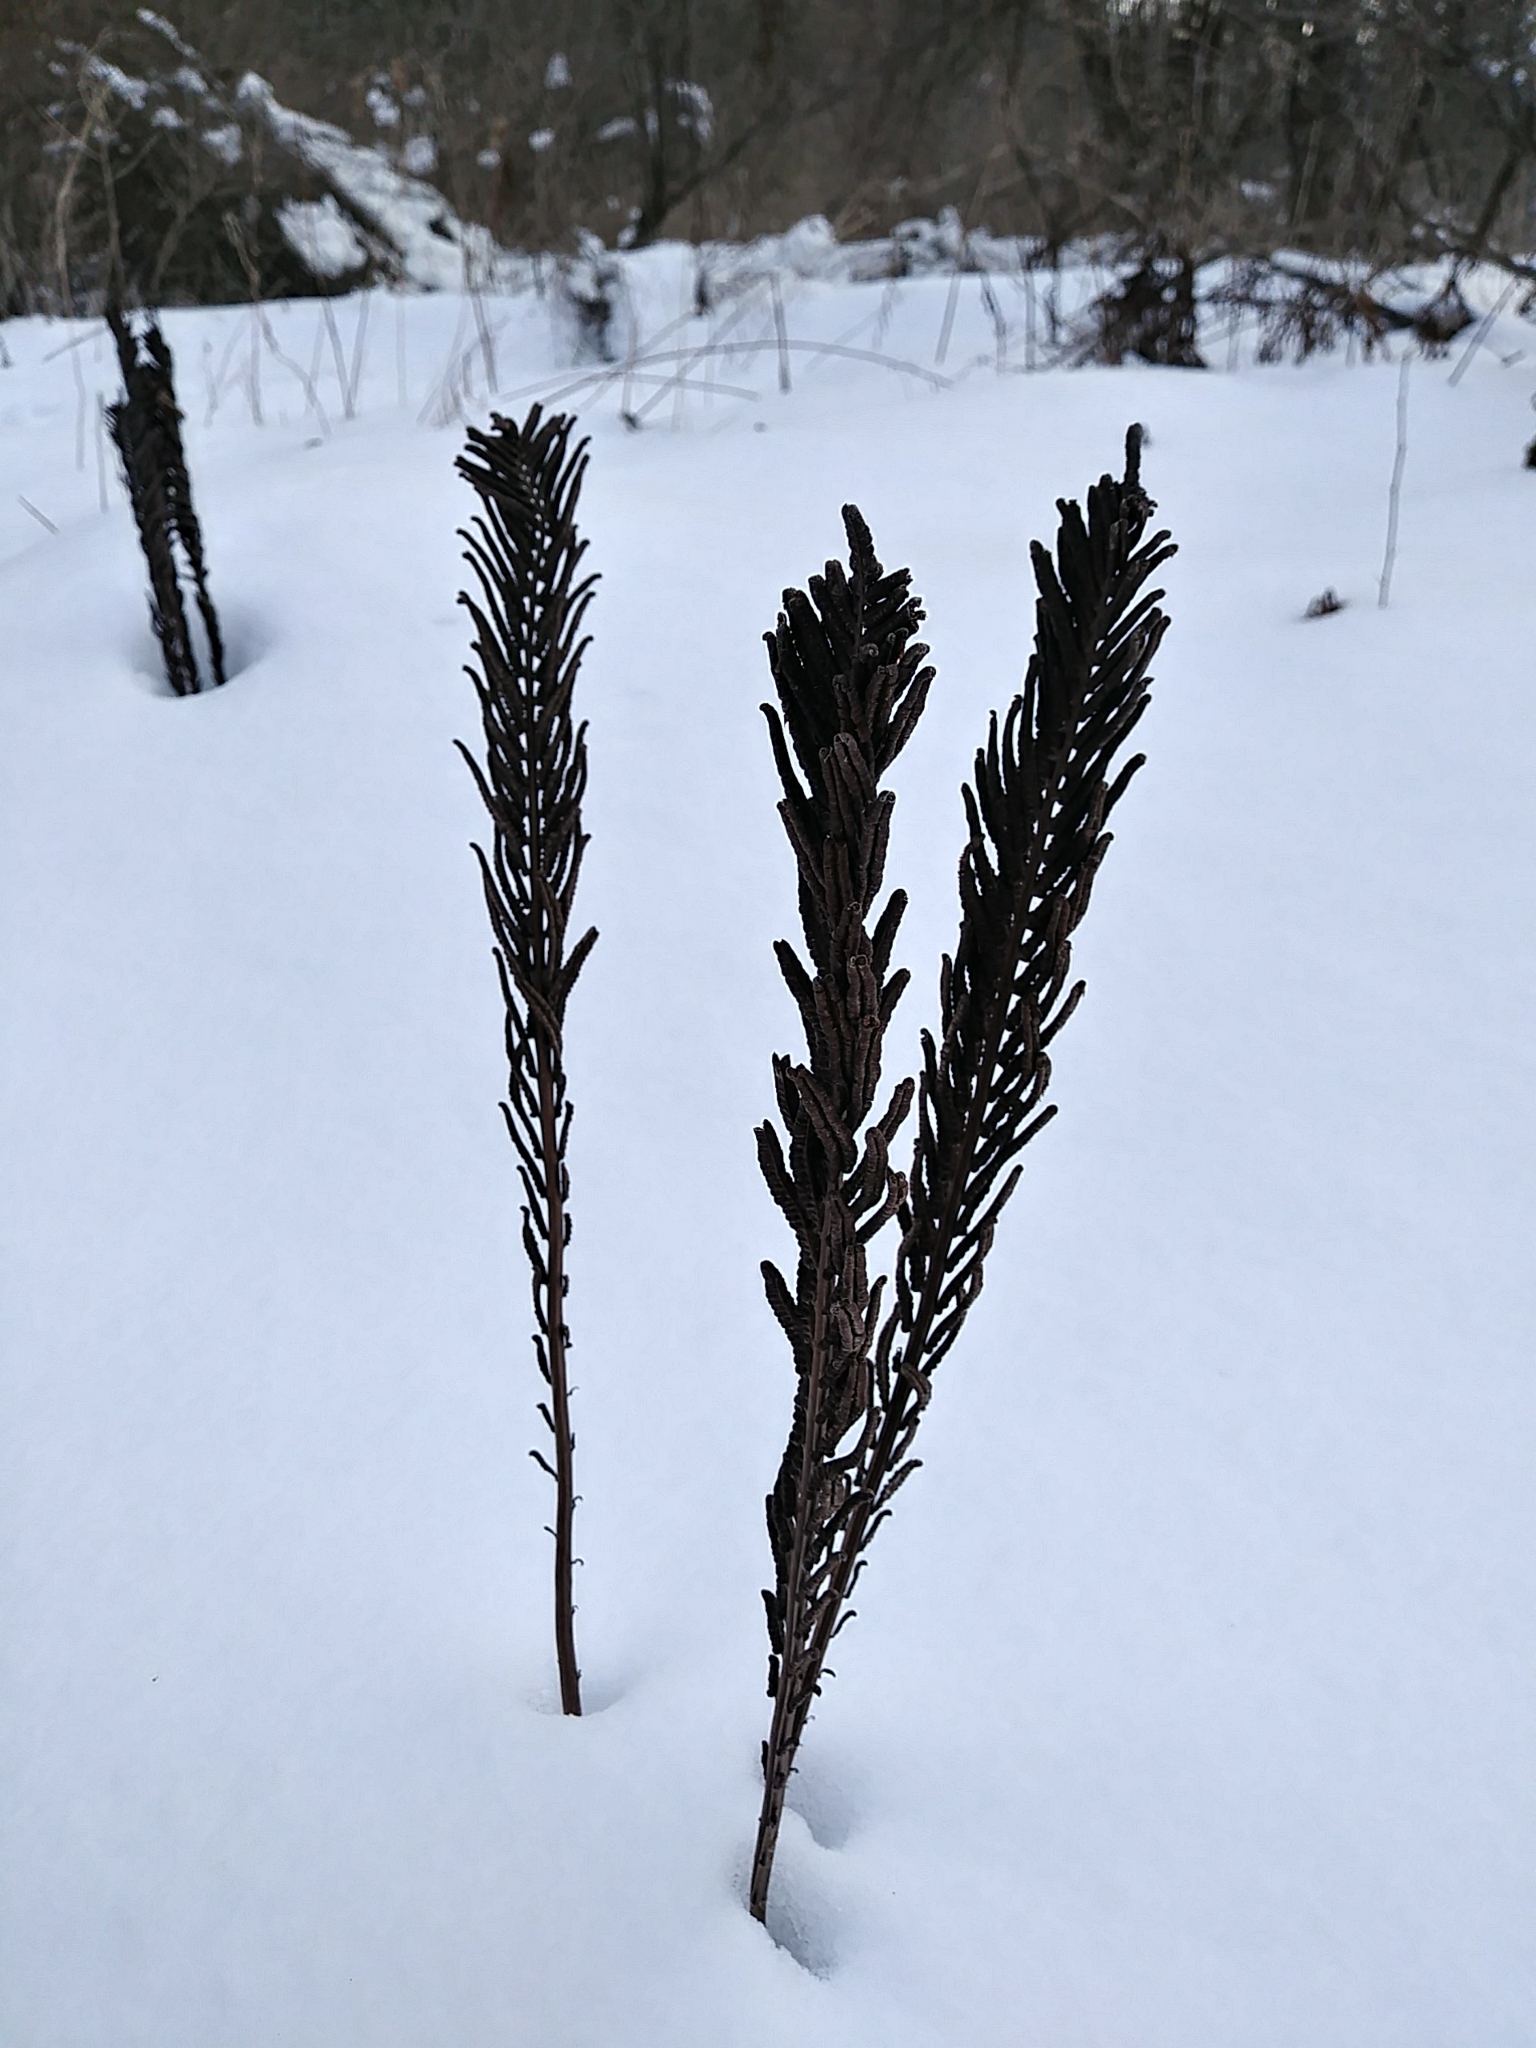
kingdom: Plantae
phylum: Tracheophyta
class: Polypodiopsida
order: Polypodiales
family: Onocleaceae
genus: Matteuccia
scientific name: Matteuccia struthiopteris
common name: Ostrich fern
